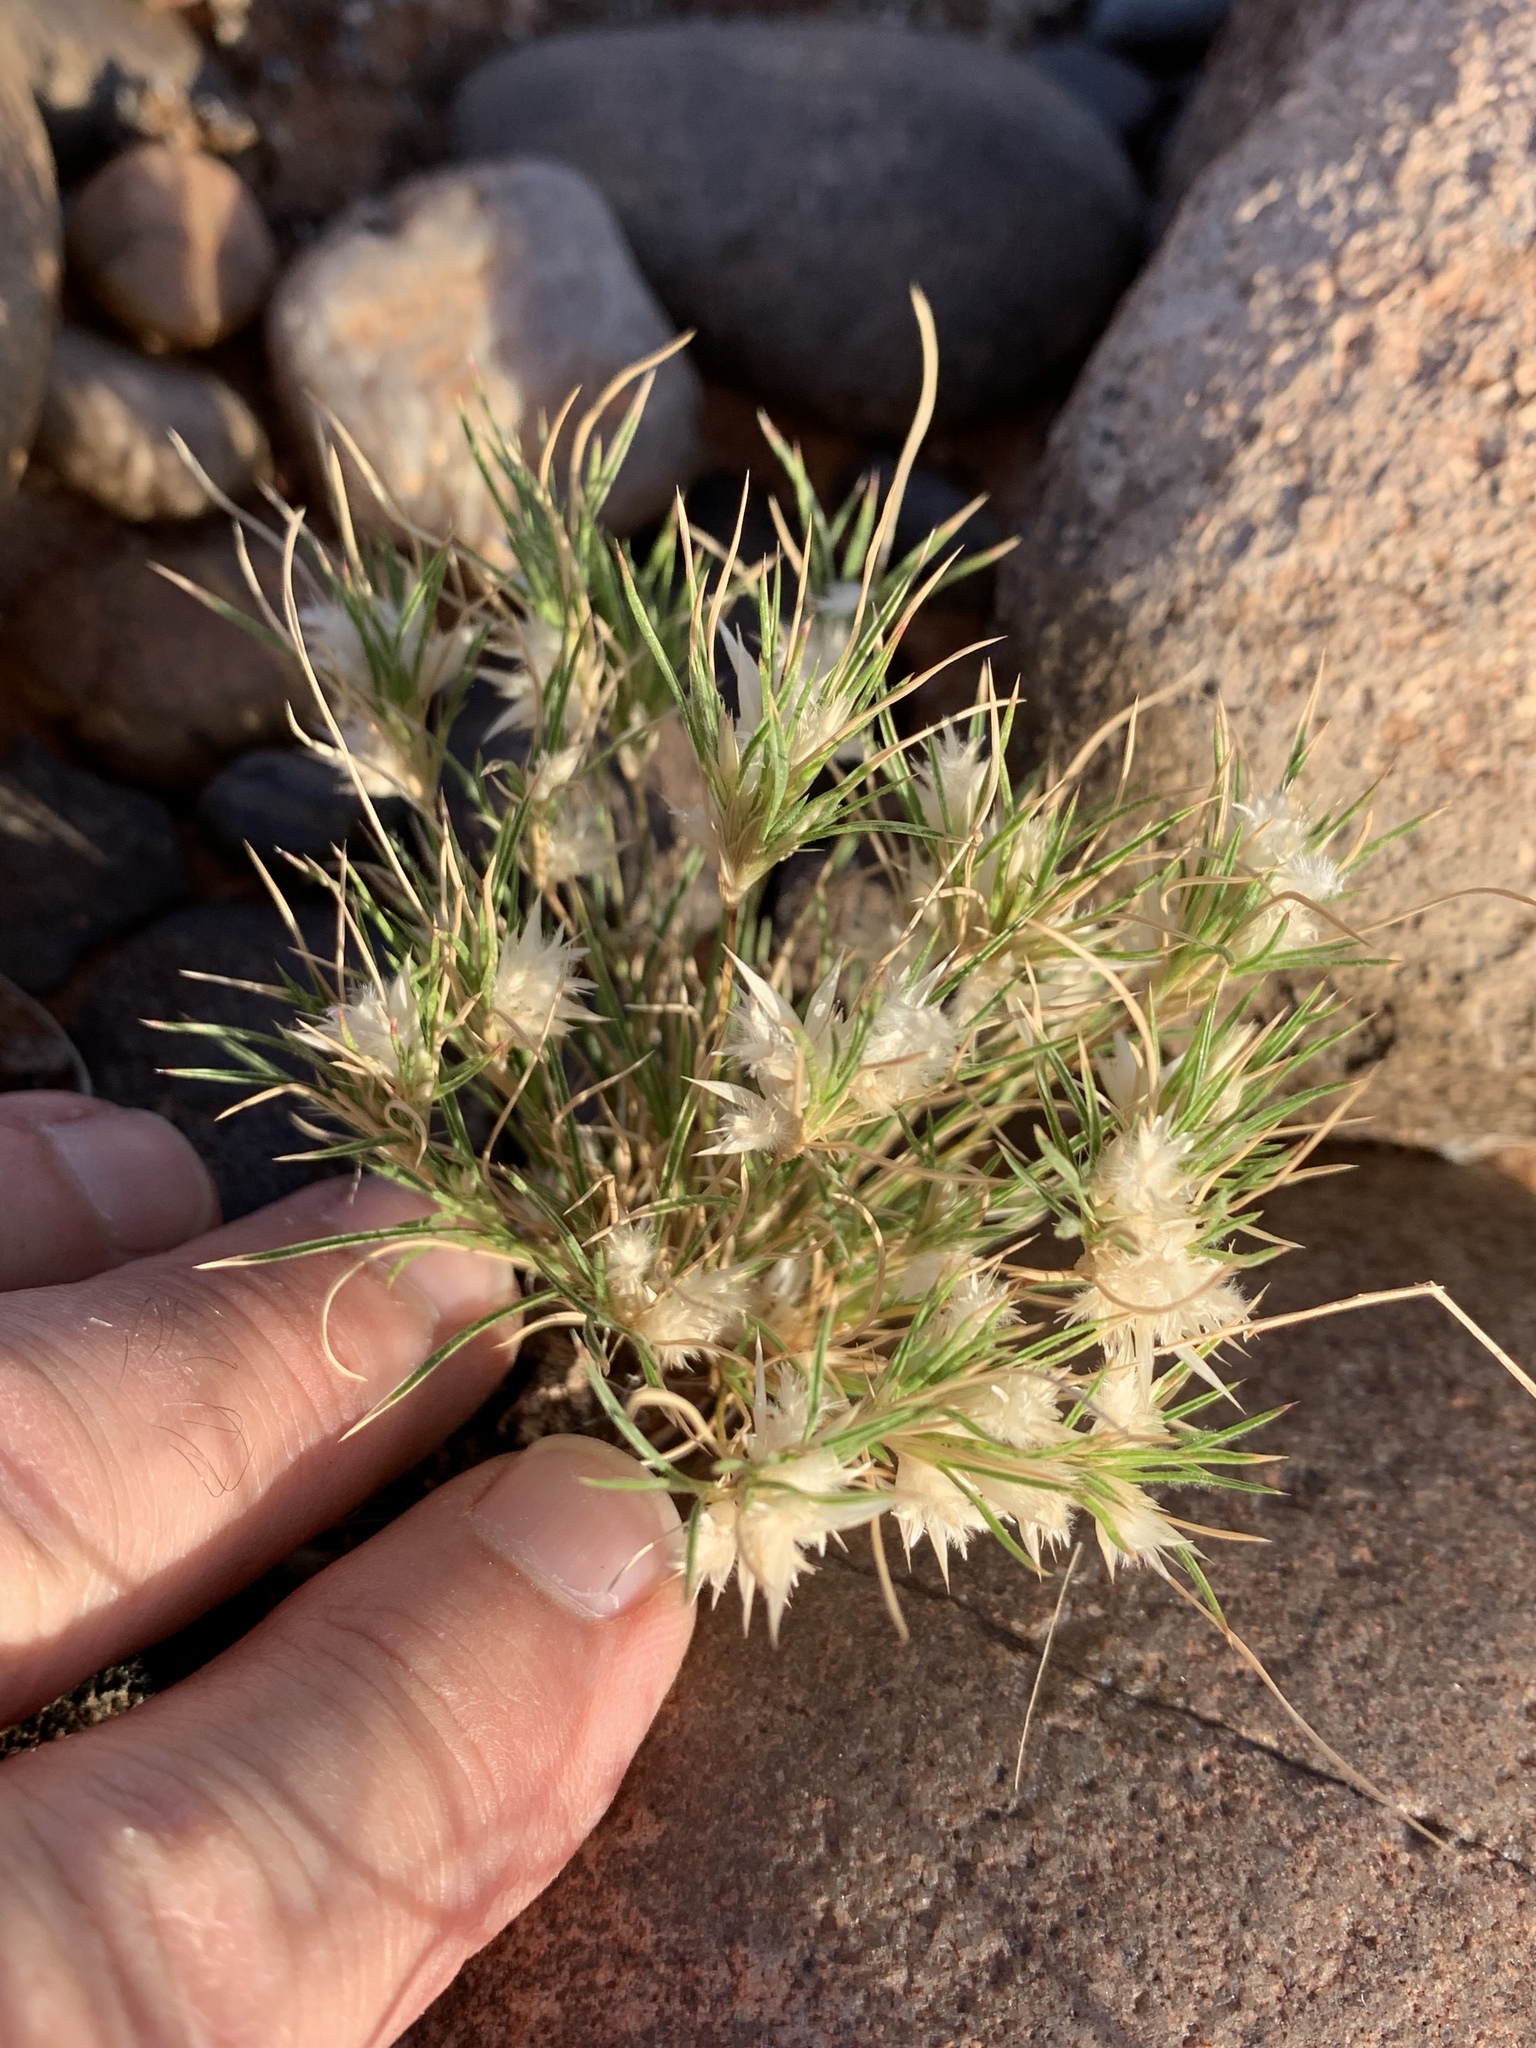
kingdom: Plantae
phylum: Tracheophyta
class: Liliopsida
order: Poales
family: Poaceae
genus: Dasyochloa
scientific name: Dasyochloa pulchella
